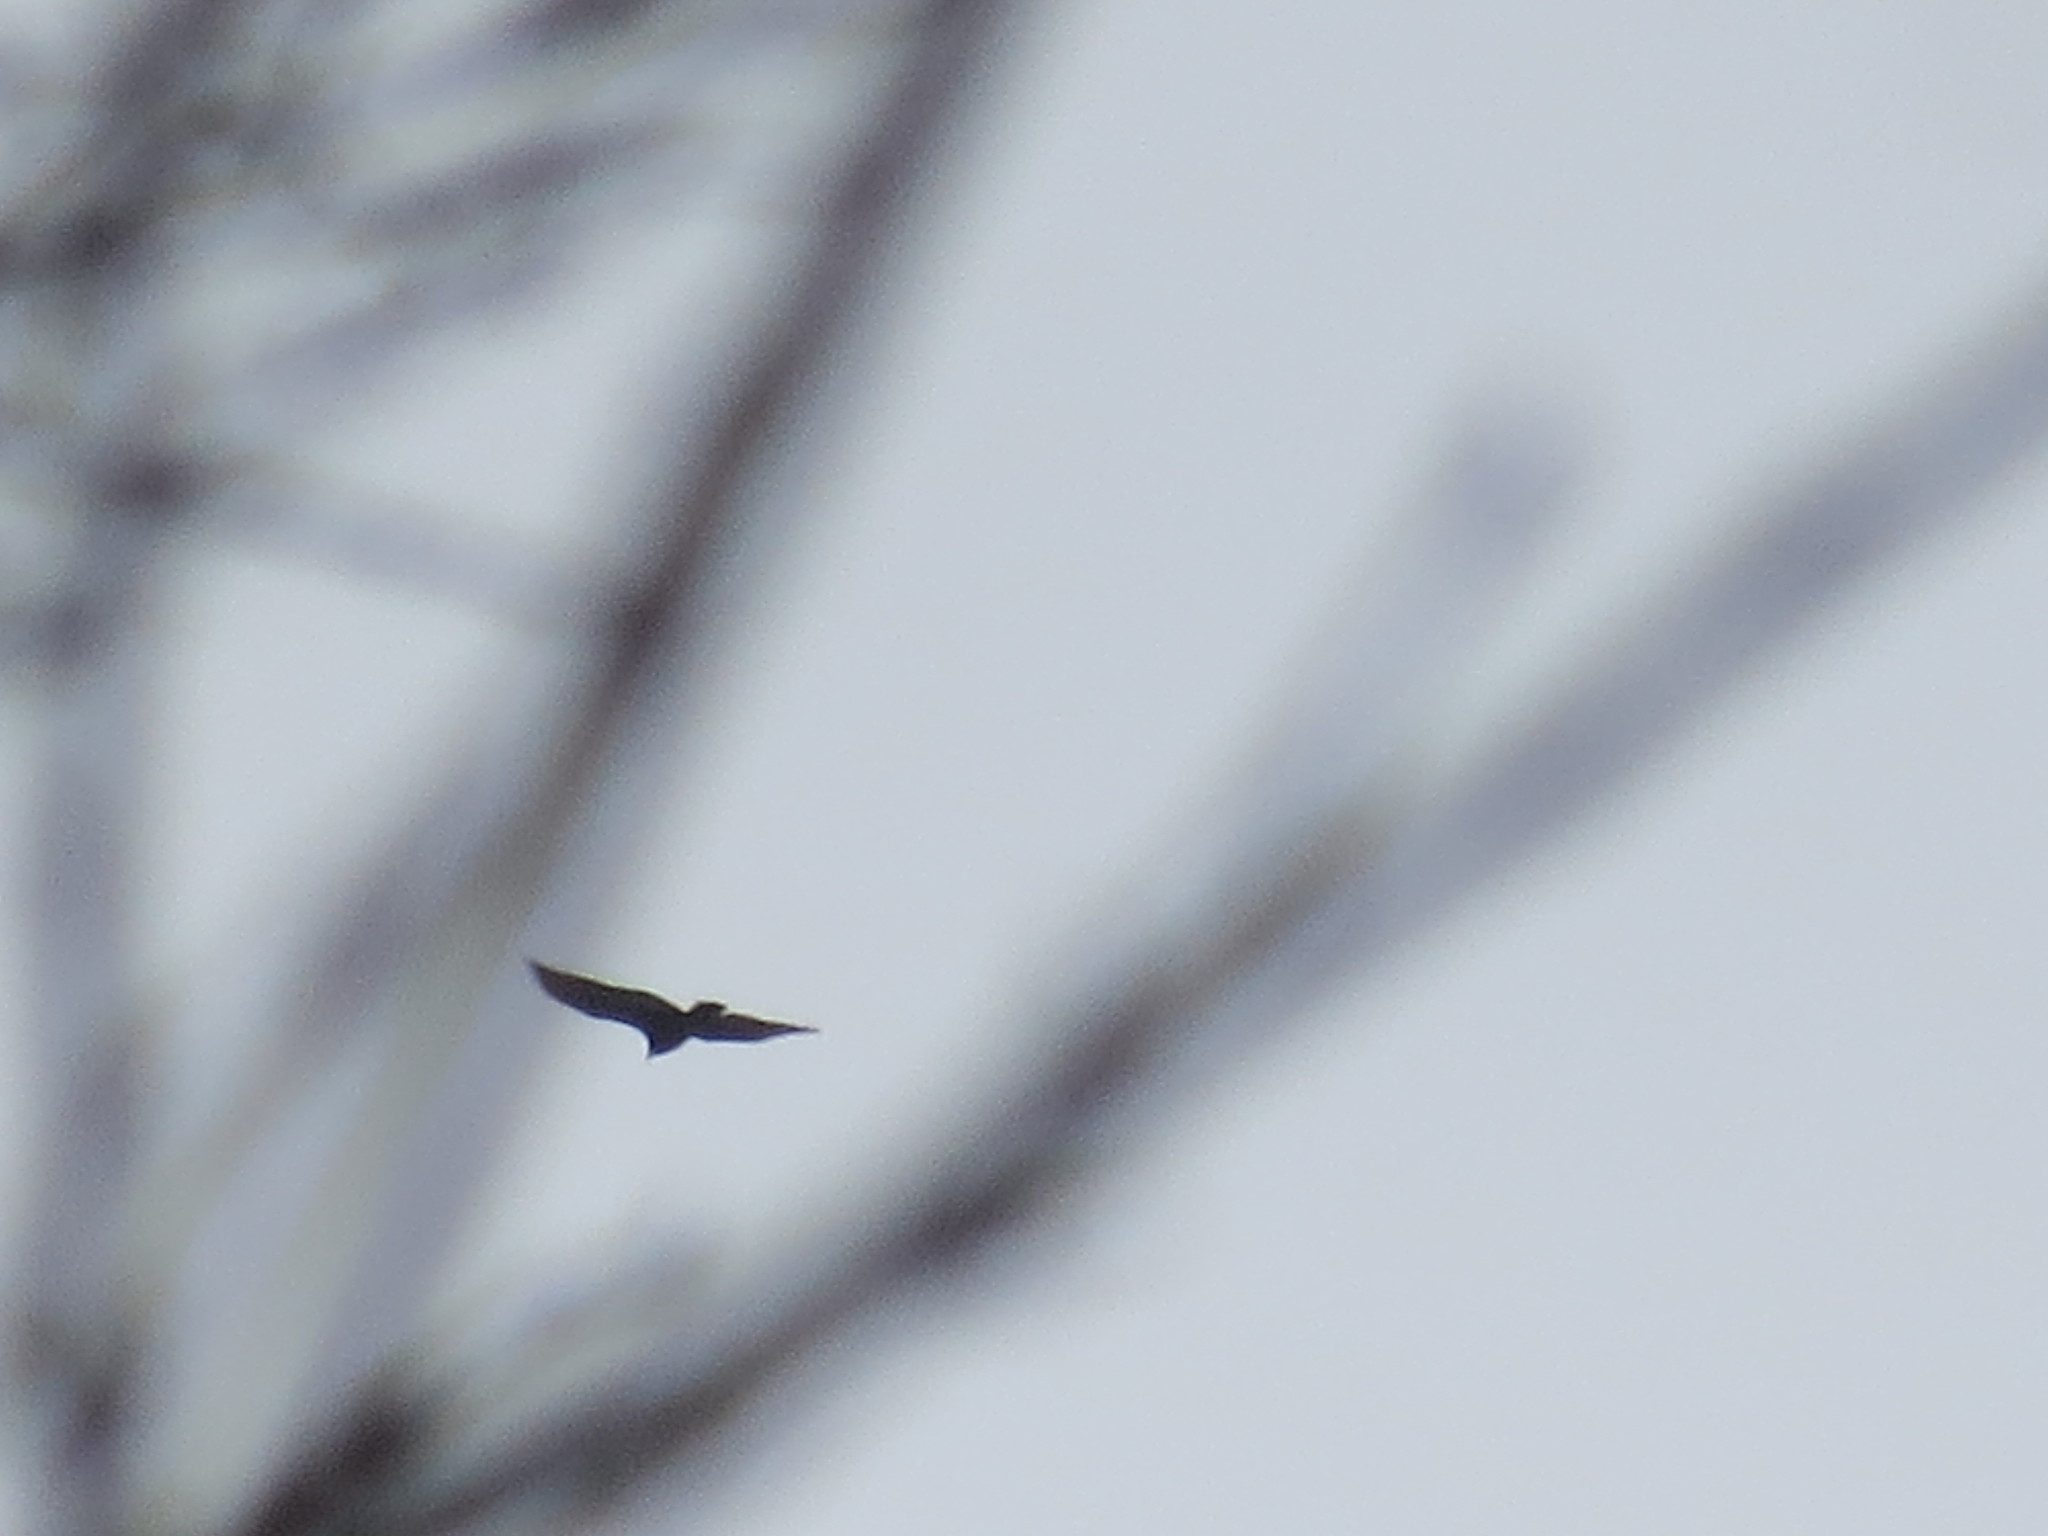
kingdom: Animalia
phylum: Chordata
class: Aves
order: Accipitriformes
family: Cathartidae
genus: Cathartes
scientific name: Cathartes aura
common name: Turkey vulture
